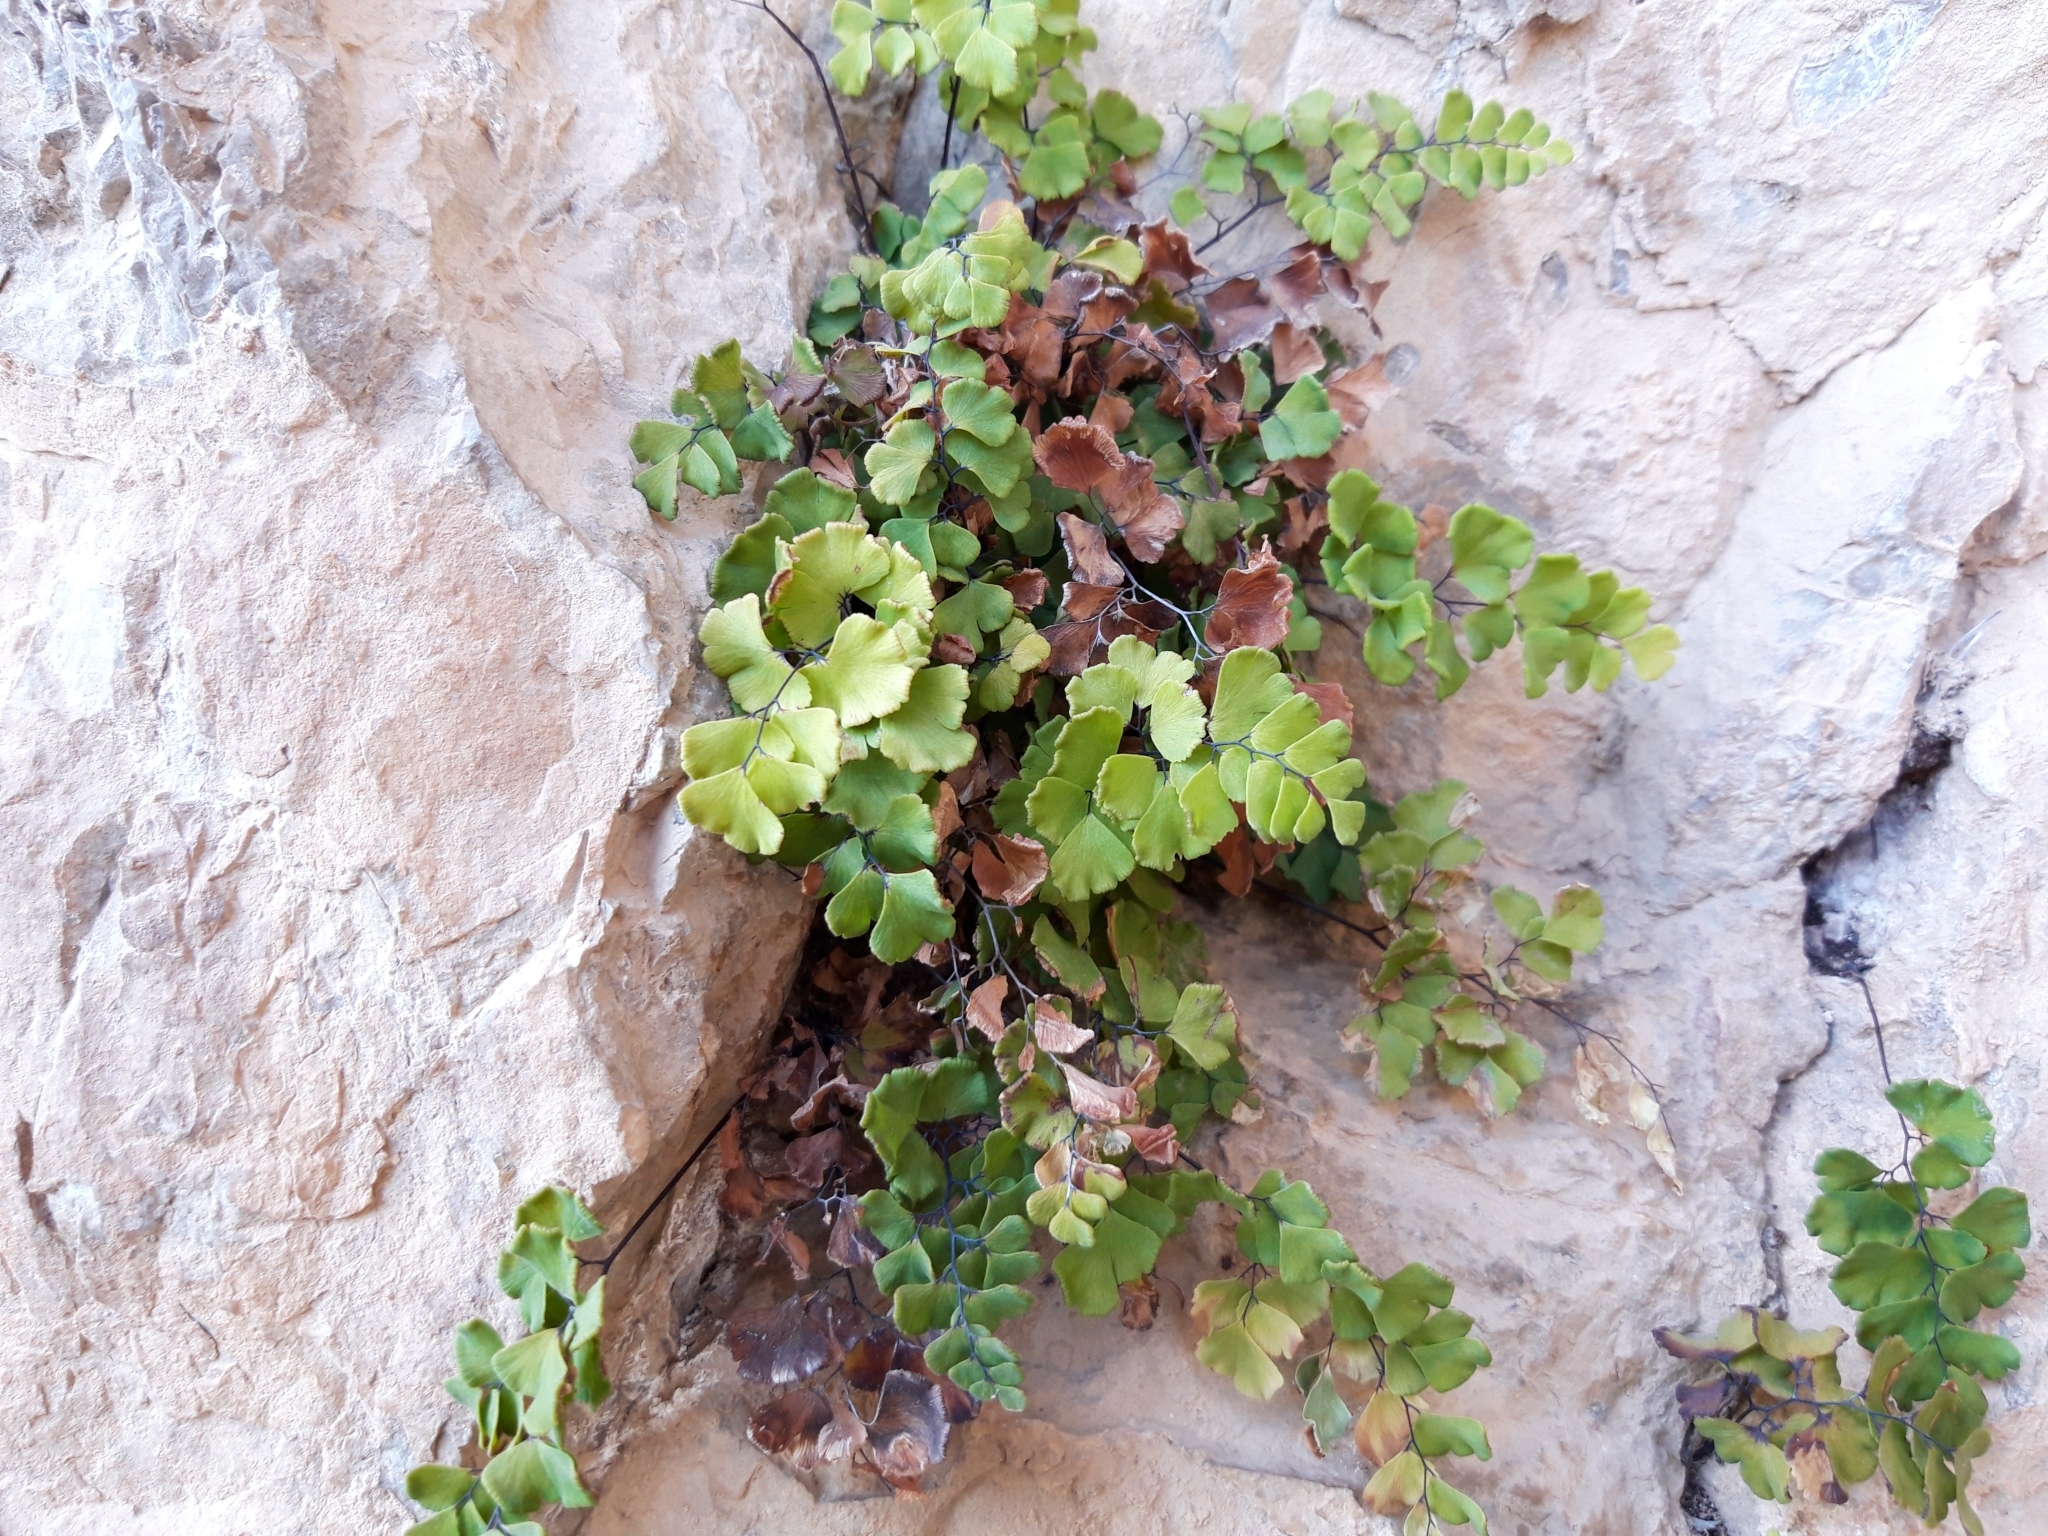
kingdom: Plantae
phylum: Tracheophyta
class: Polypodiopsida
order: Polypodiales
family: Pteridaceae
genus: Adiantum
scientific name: Adiantum capillus-veneris
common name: Maidenhair fern
